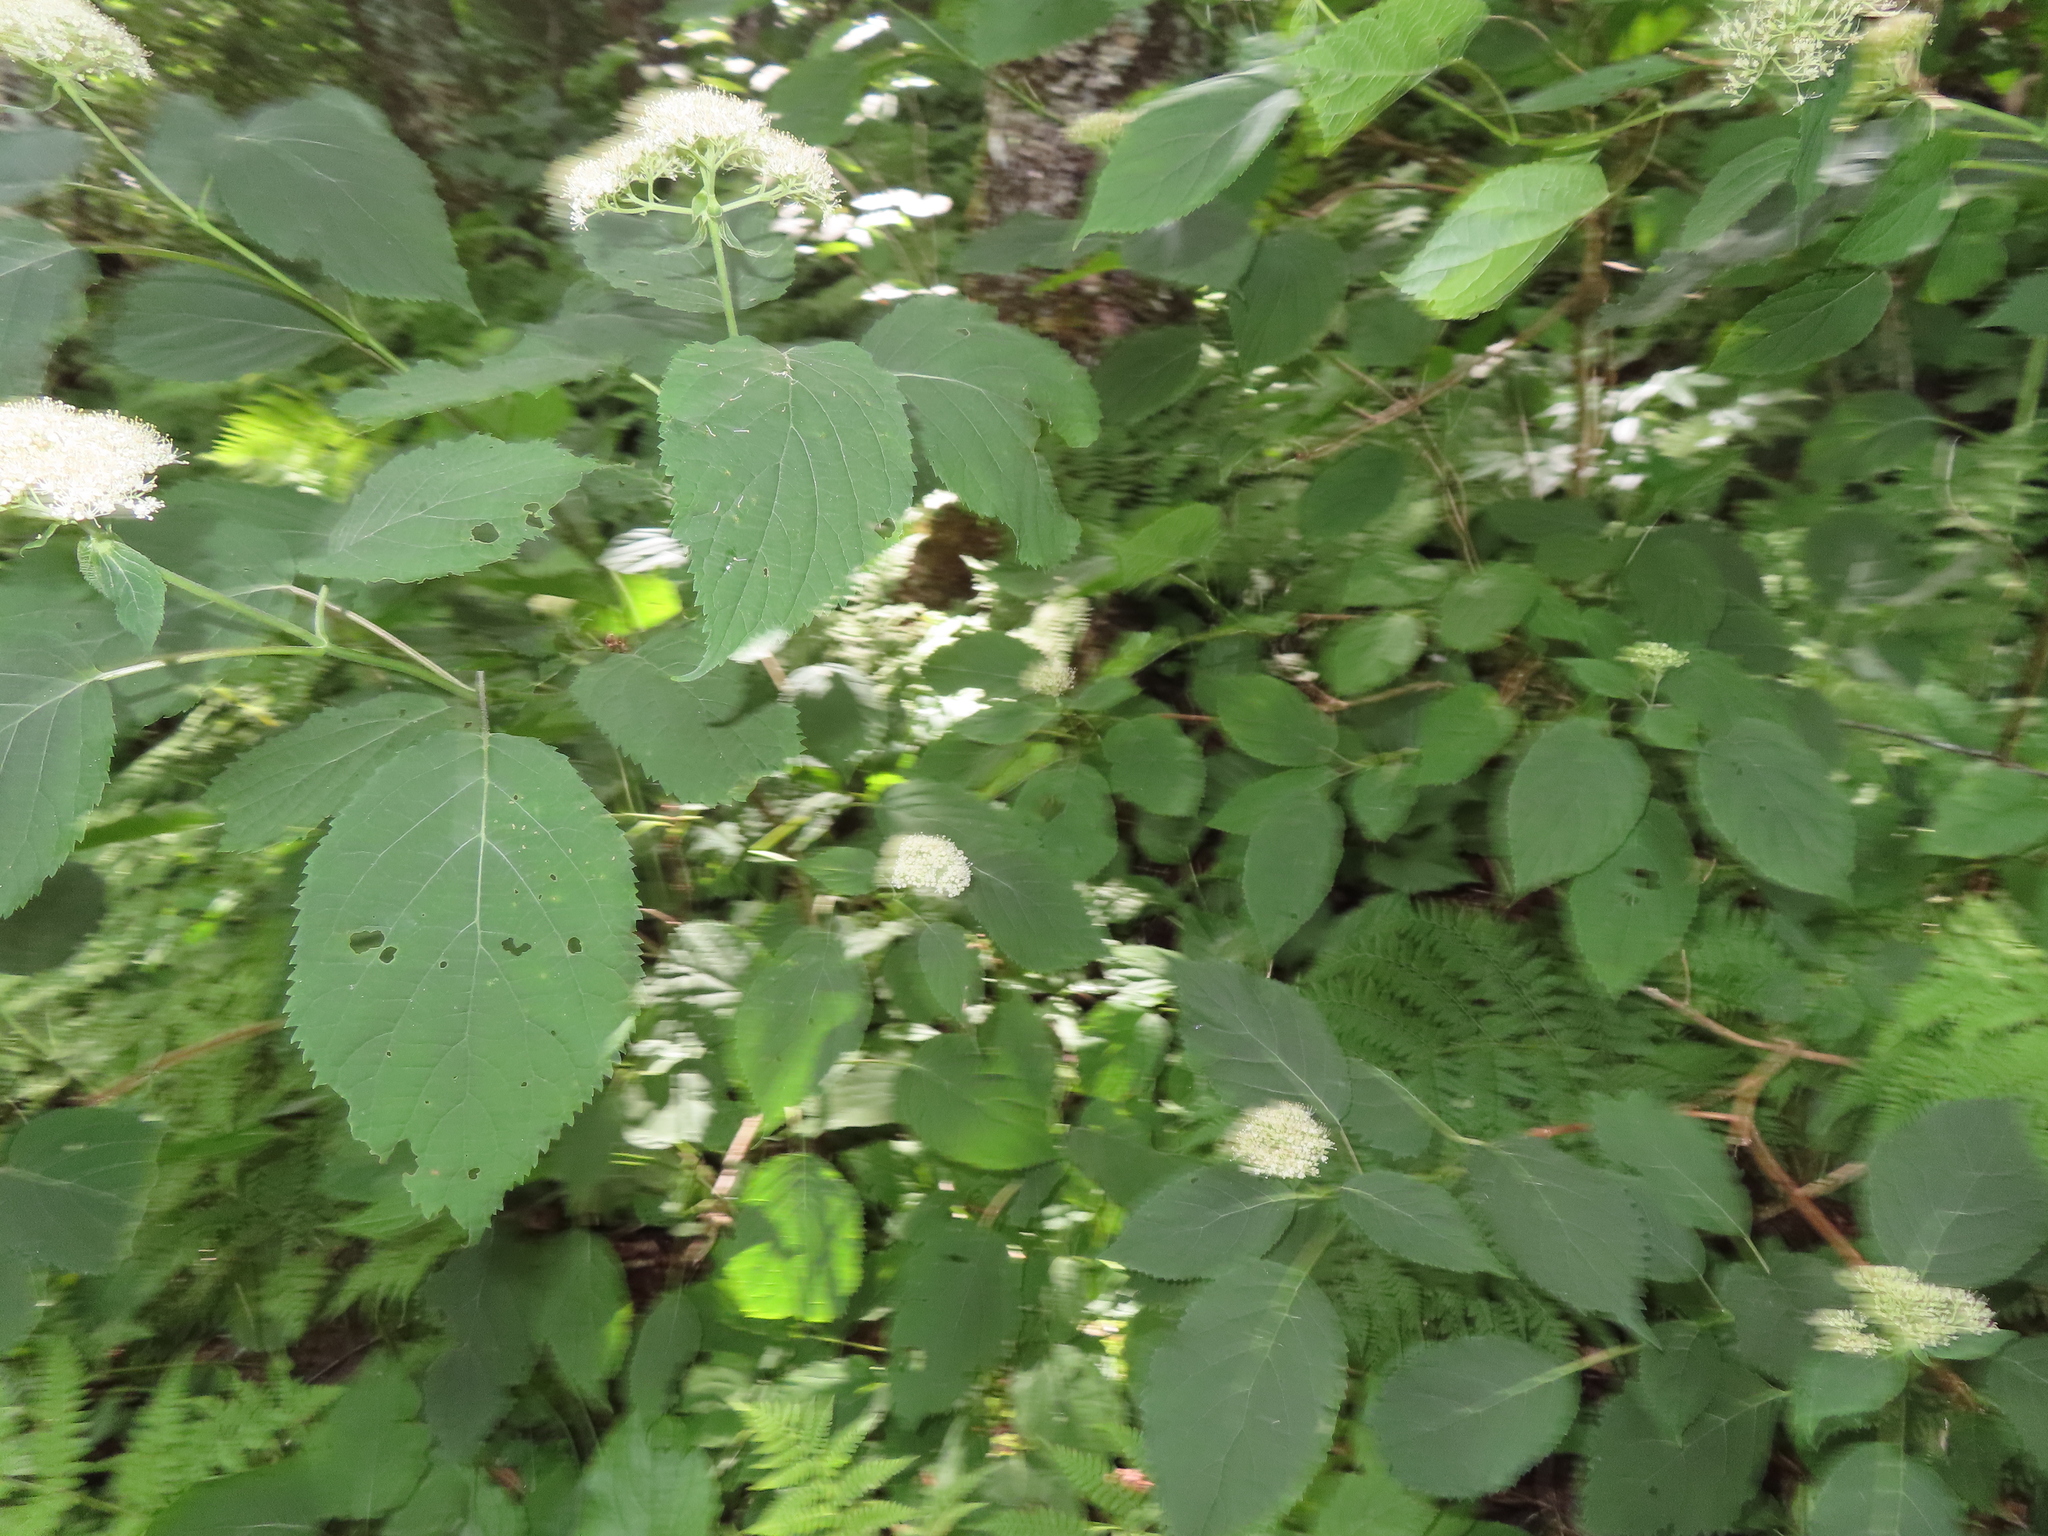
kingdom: Plantae
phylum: Tracheophyta
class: Magnoliopsida
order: Cornales
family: Hydrangeaceae
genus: Hydrangea
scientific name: Hydrangea arborescens
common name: Sevenbark
